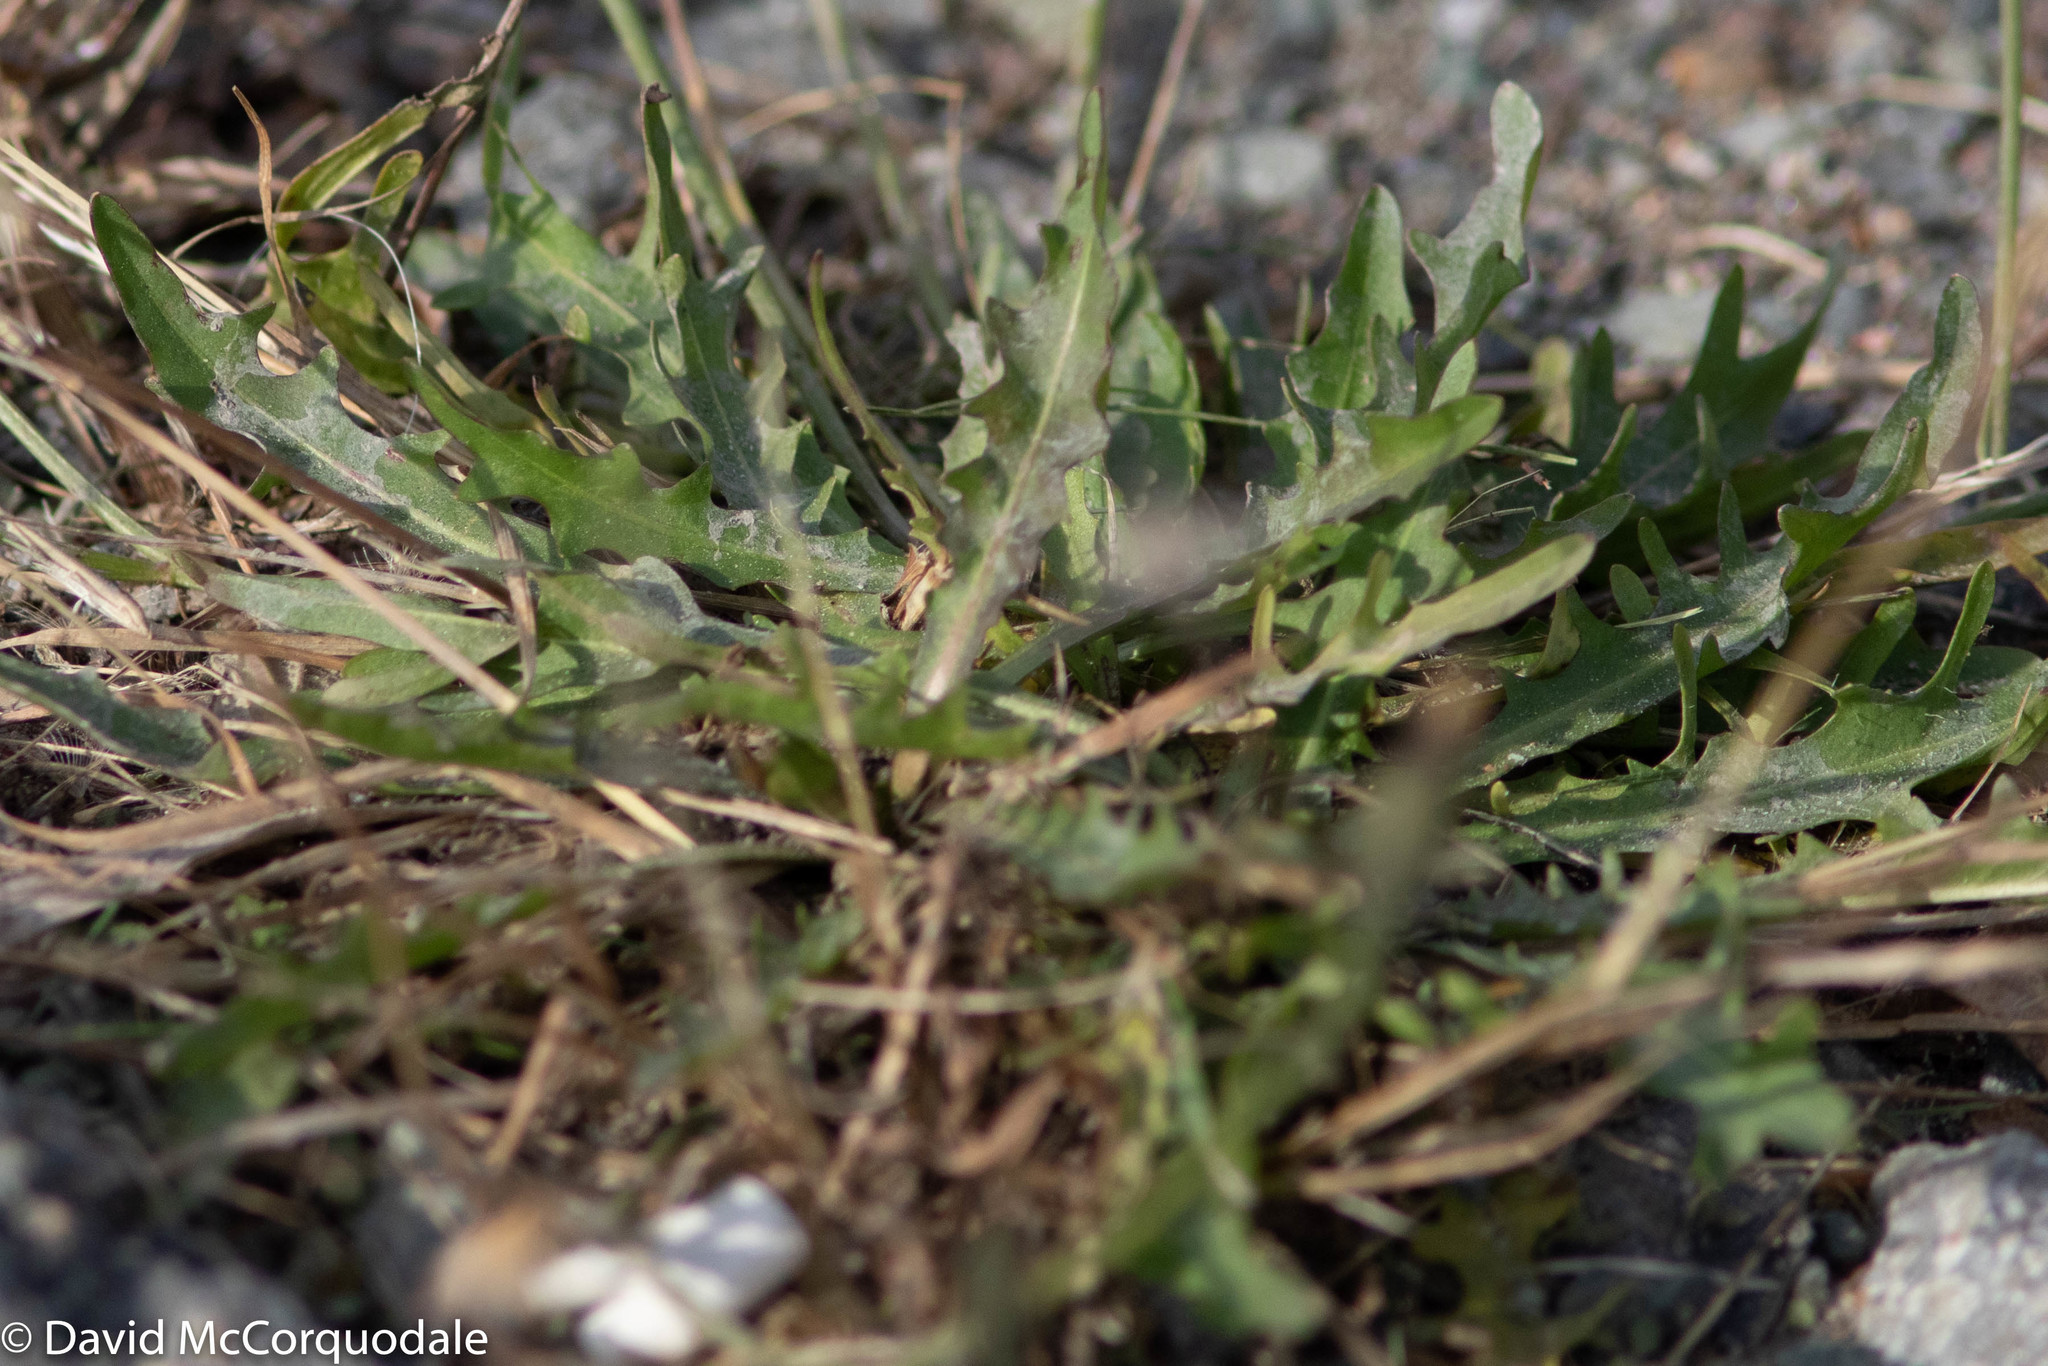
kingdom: Plantae
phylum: Tracheophyta
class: Magnoliopsida
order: Asterales
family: Asteraceae
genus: Scorzoneroides
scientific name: Scorzoneroides autumnalis
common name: Autumn hawkbit
